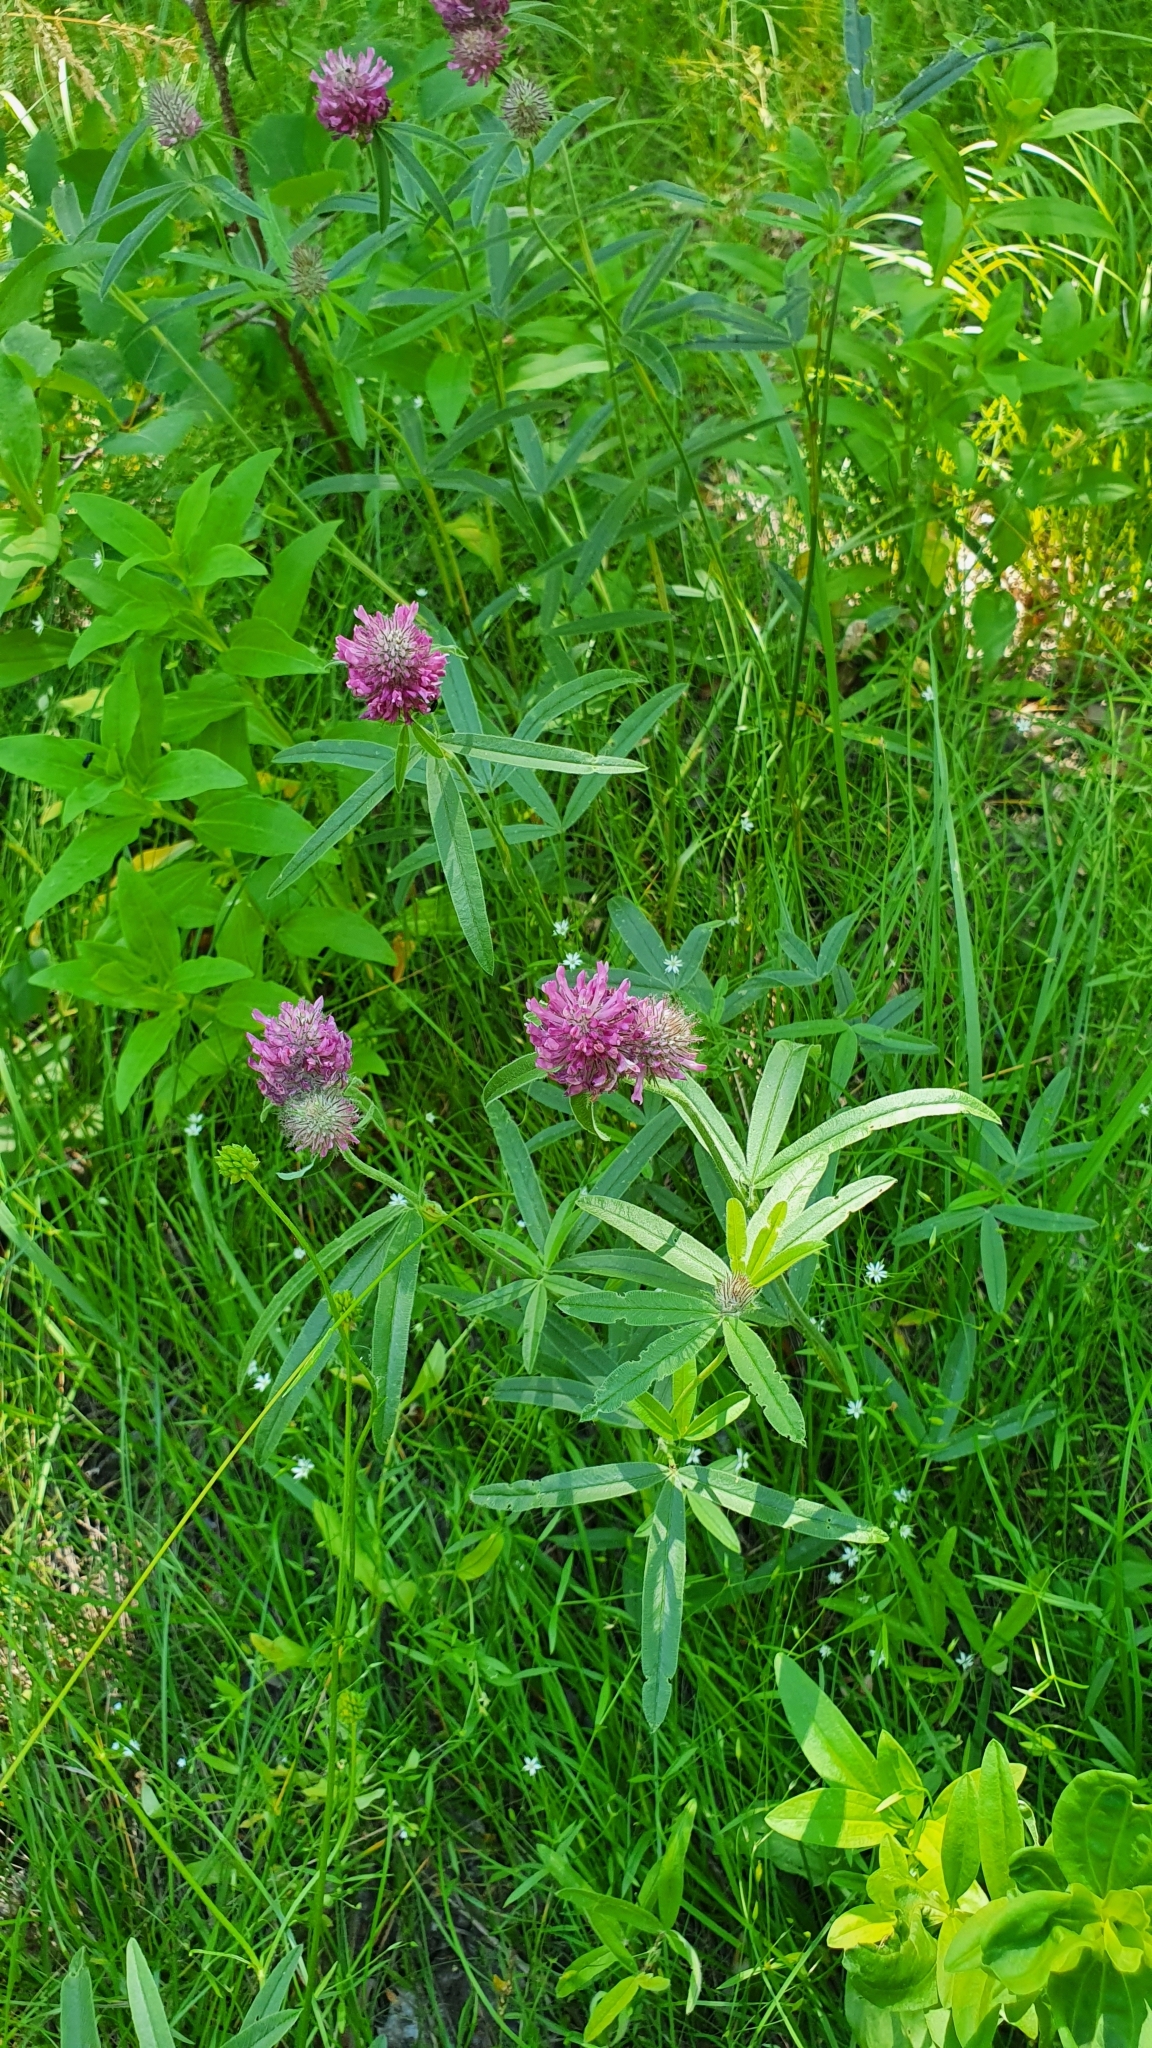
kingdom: Plantae
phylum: Tracheophyta
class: Magnoliopsida
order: Fabales
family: Fabaceae
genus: Trifolium
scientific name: Trifolium alpestre
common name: Owl-head clover
